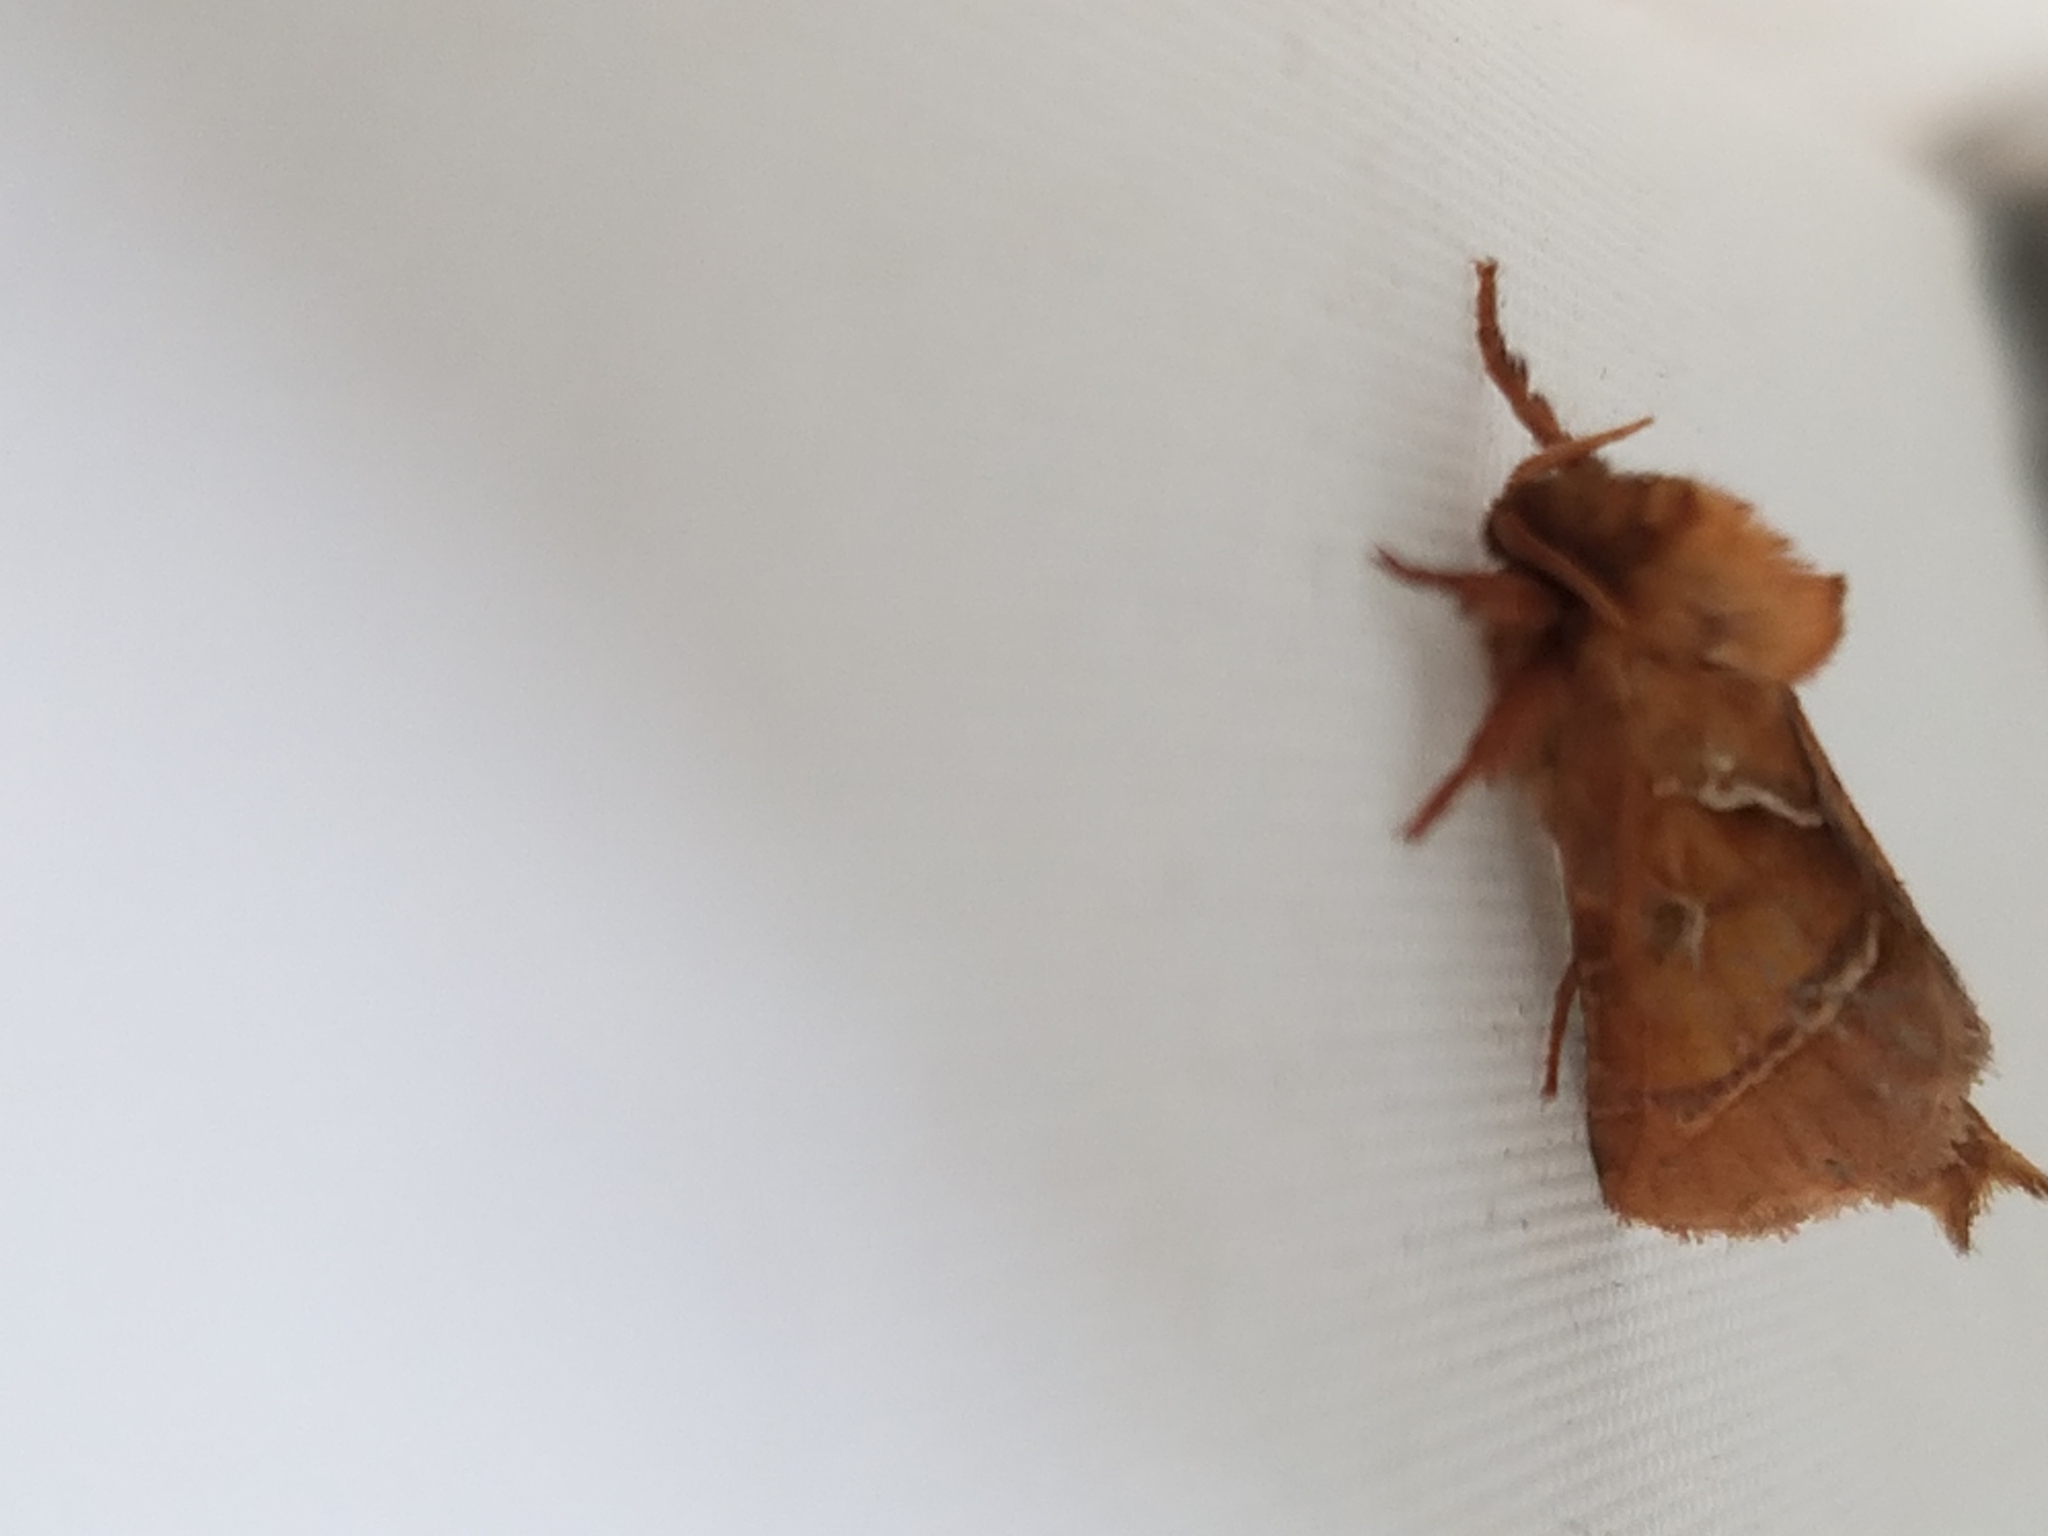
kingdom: Animalia
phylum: Arthropoda
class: Insecta
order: Lepidoptera
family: Hepialidae
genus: Triodia
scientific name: Triodia sylvina
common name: Orange swift
